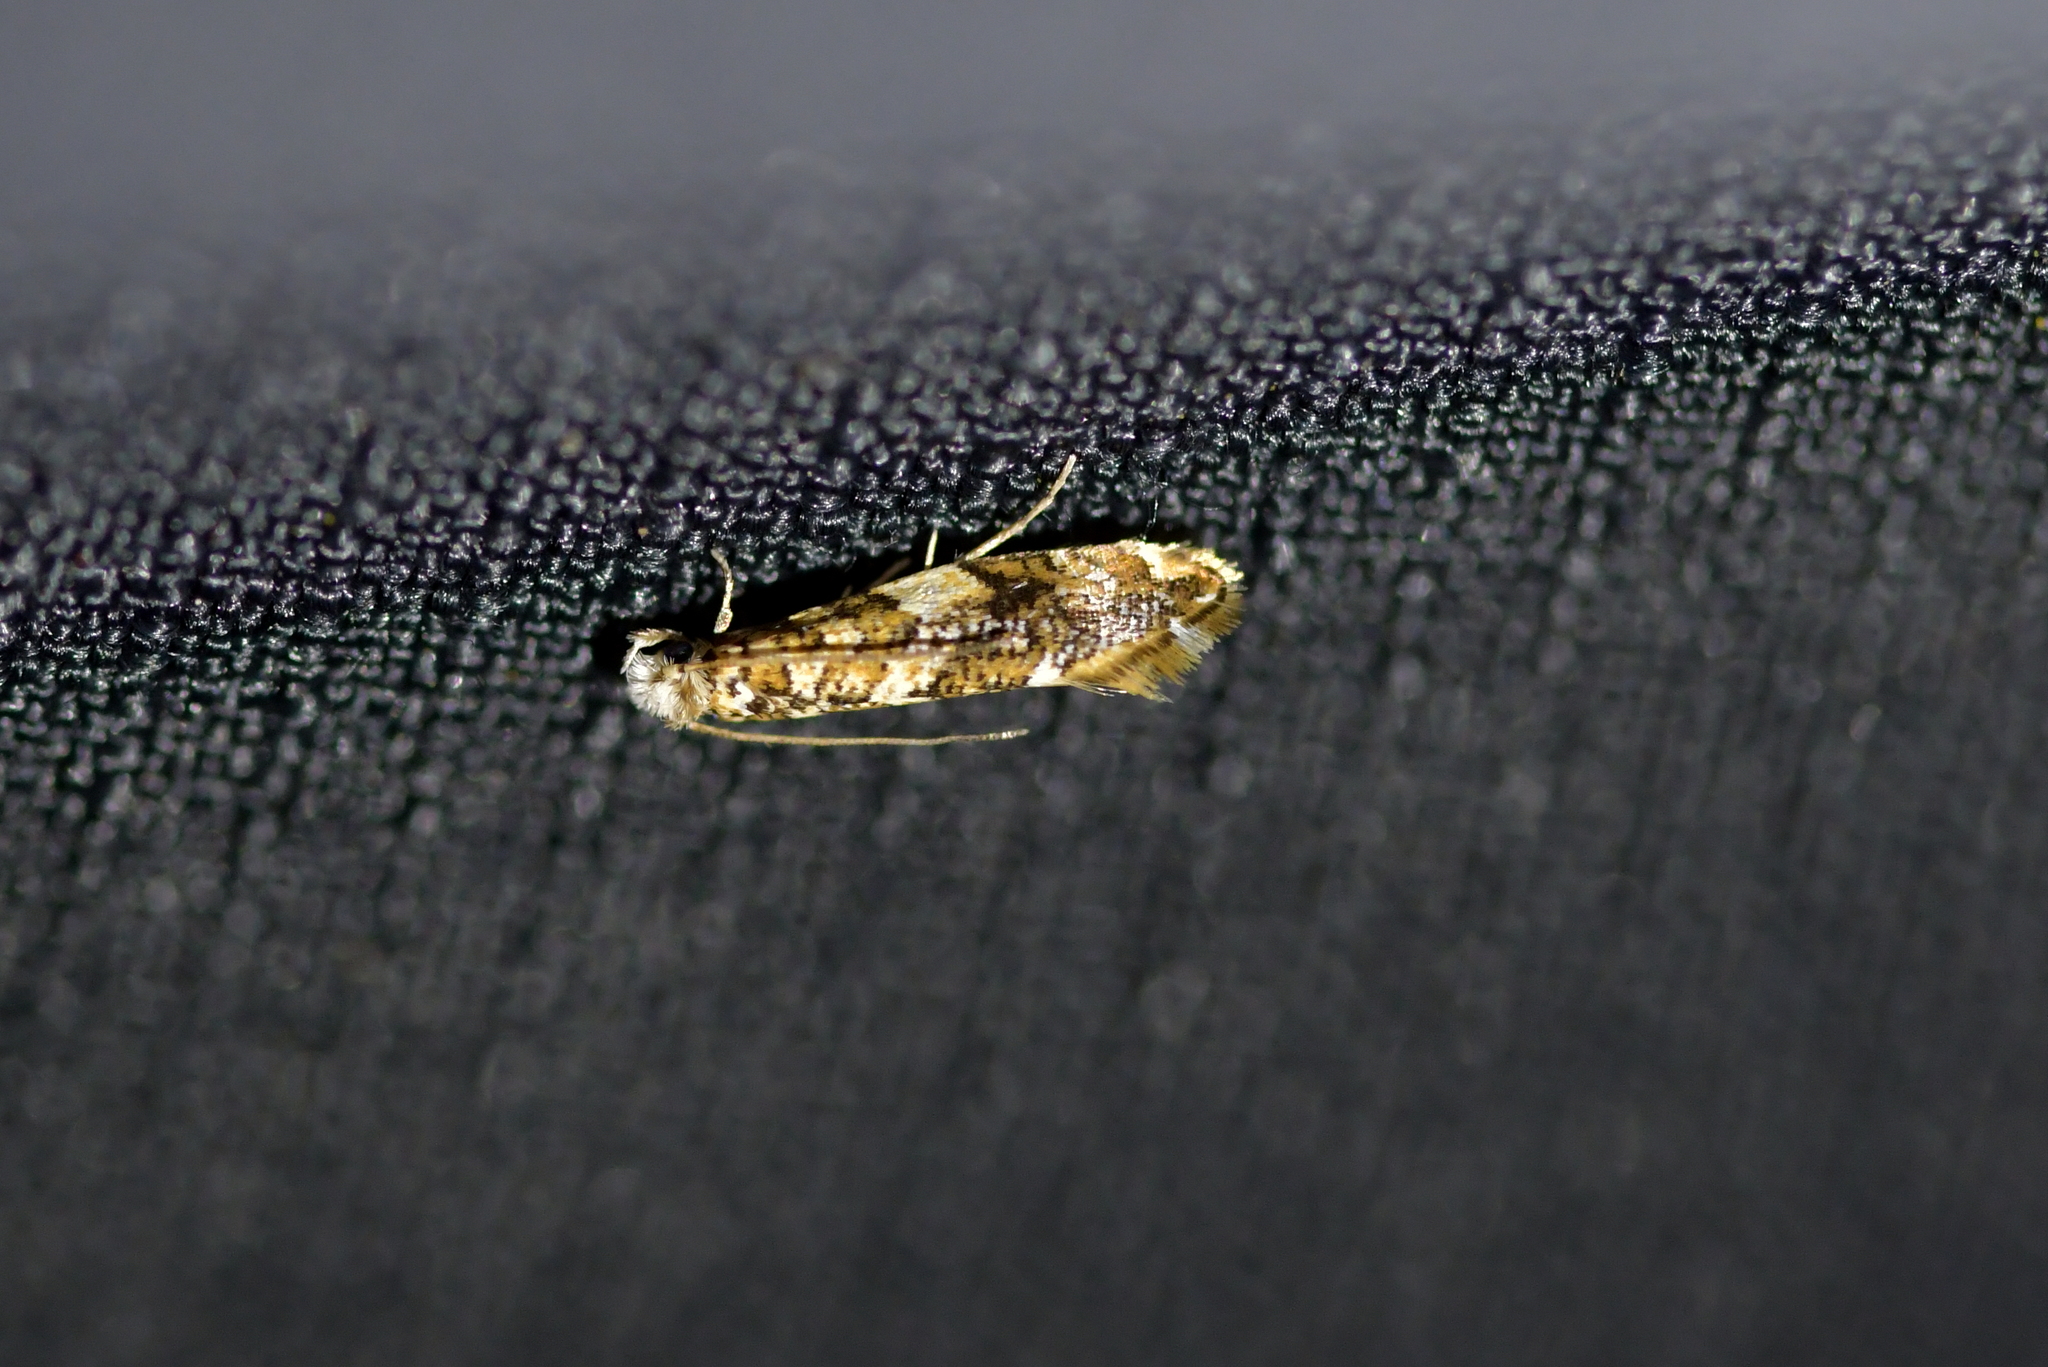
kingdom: Animalia
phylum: Arthropoda
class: Insecta
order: Lepidoptera
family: Tineidae
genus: Eschatotypa
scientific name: Eschatotypa derogatella
